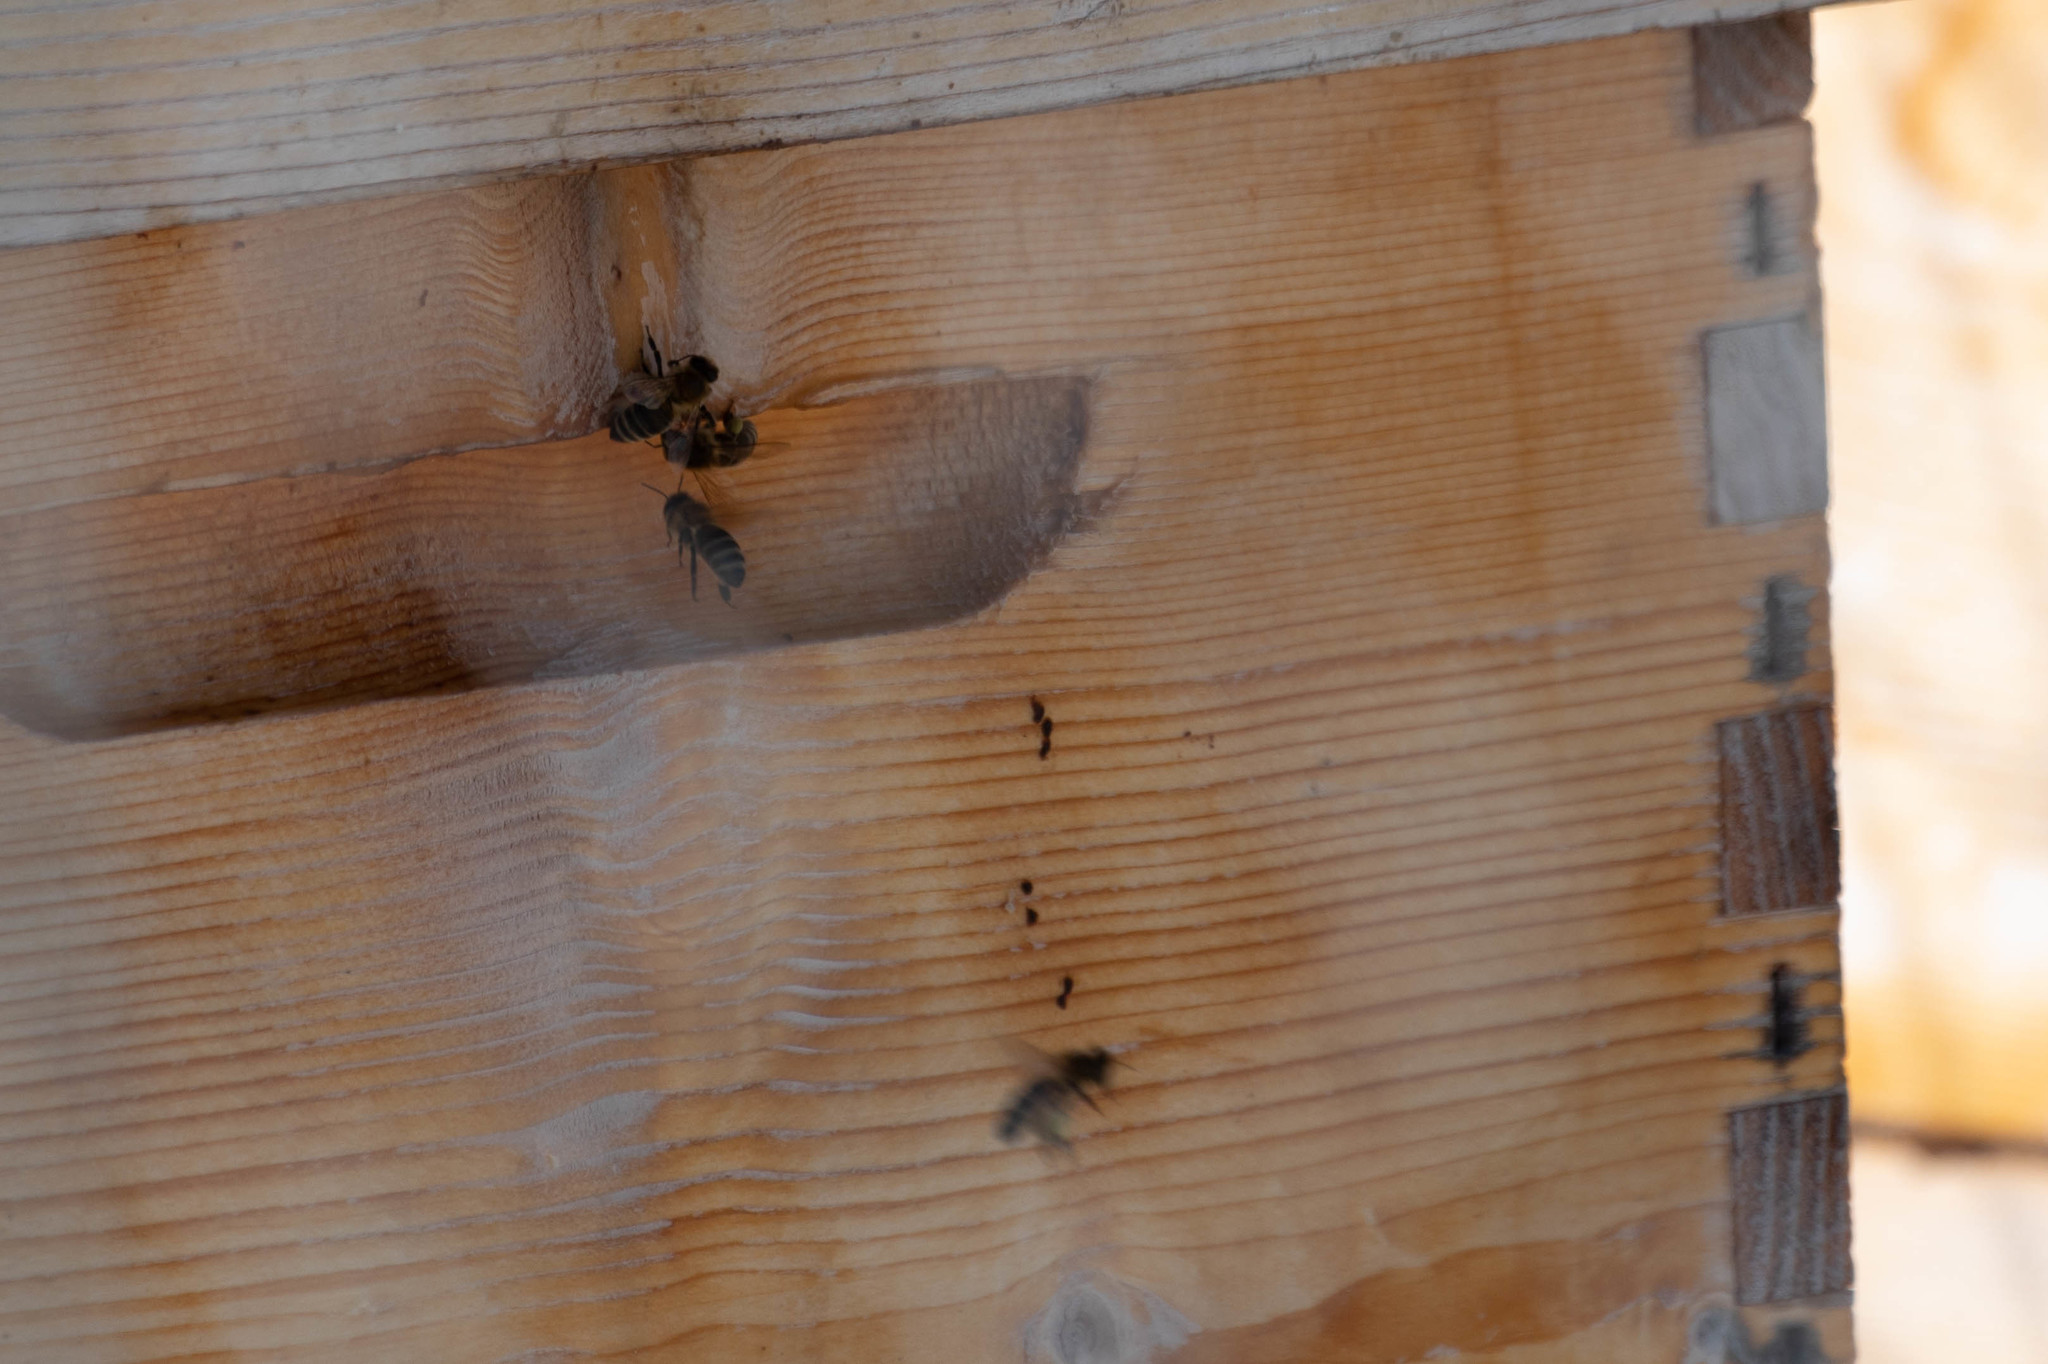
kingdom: Animalia
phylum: Arthropoda
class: Insecta
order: Hymenoptera
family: Apidae
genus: Apis
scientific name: Apis mellifera
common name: Honey bee
